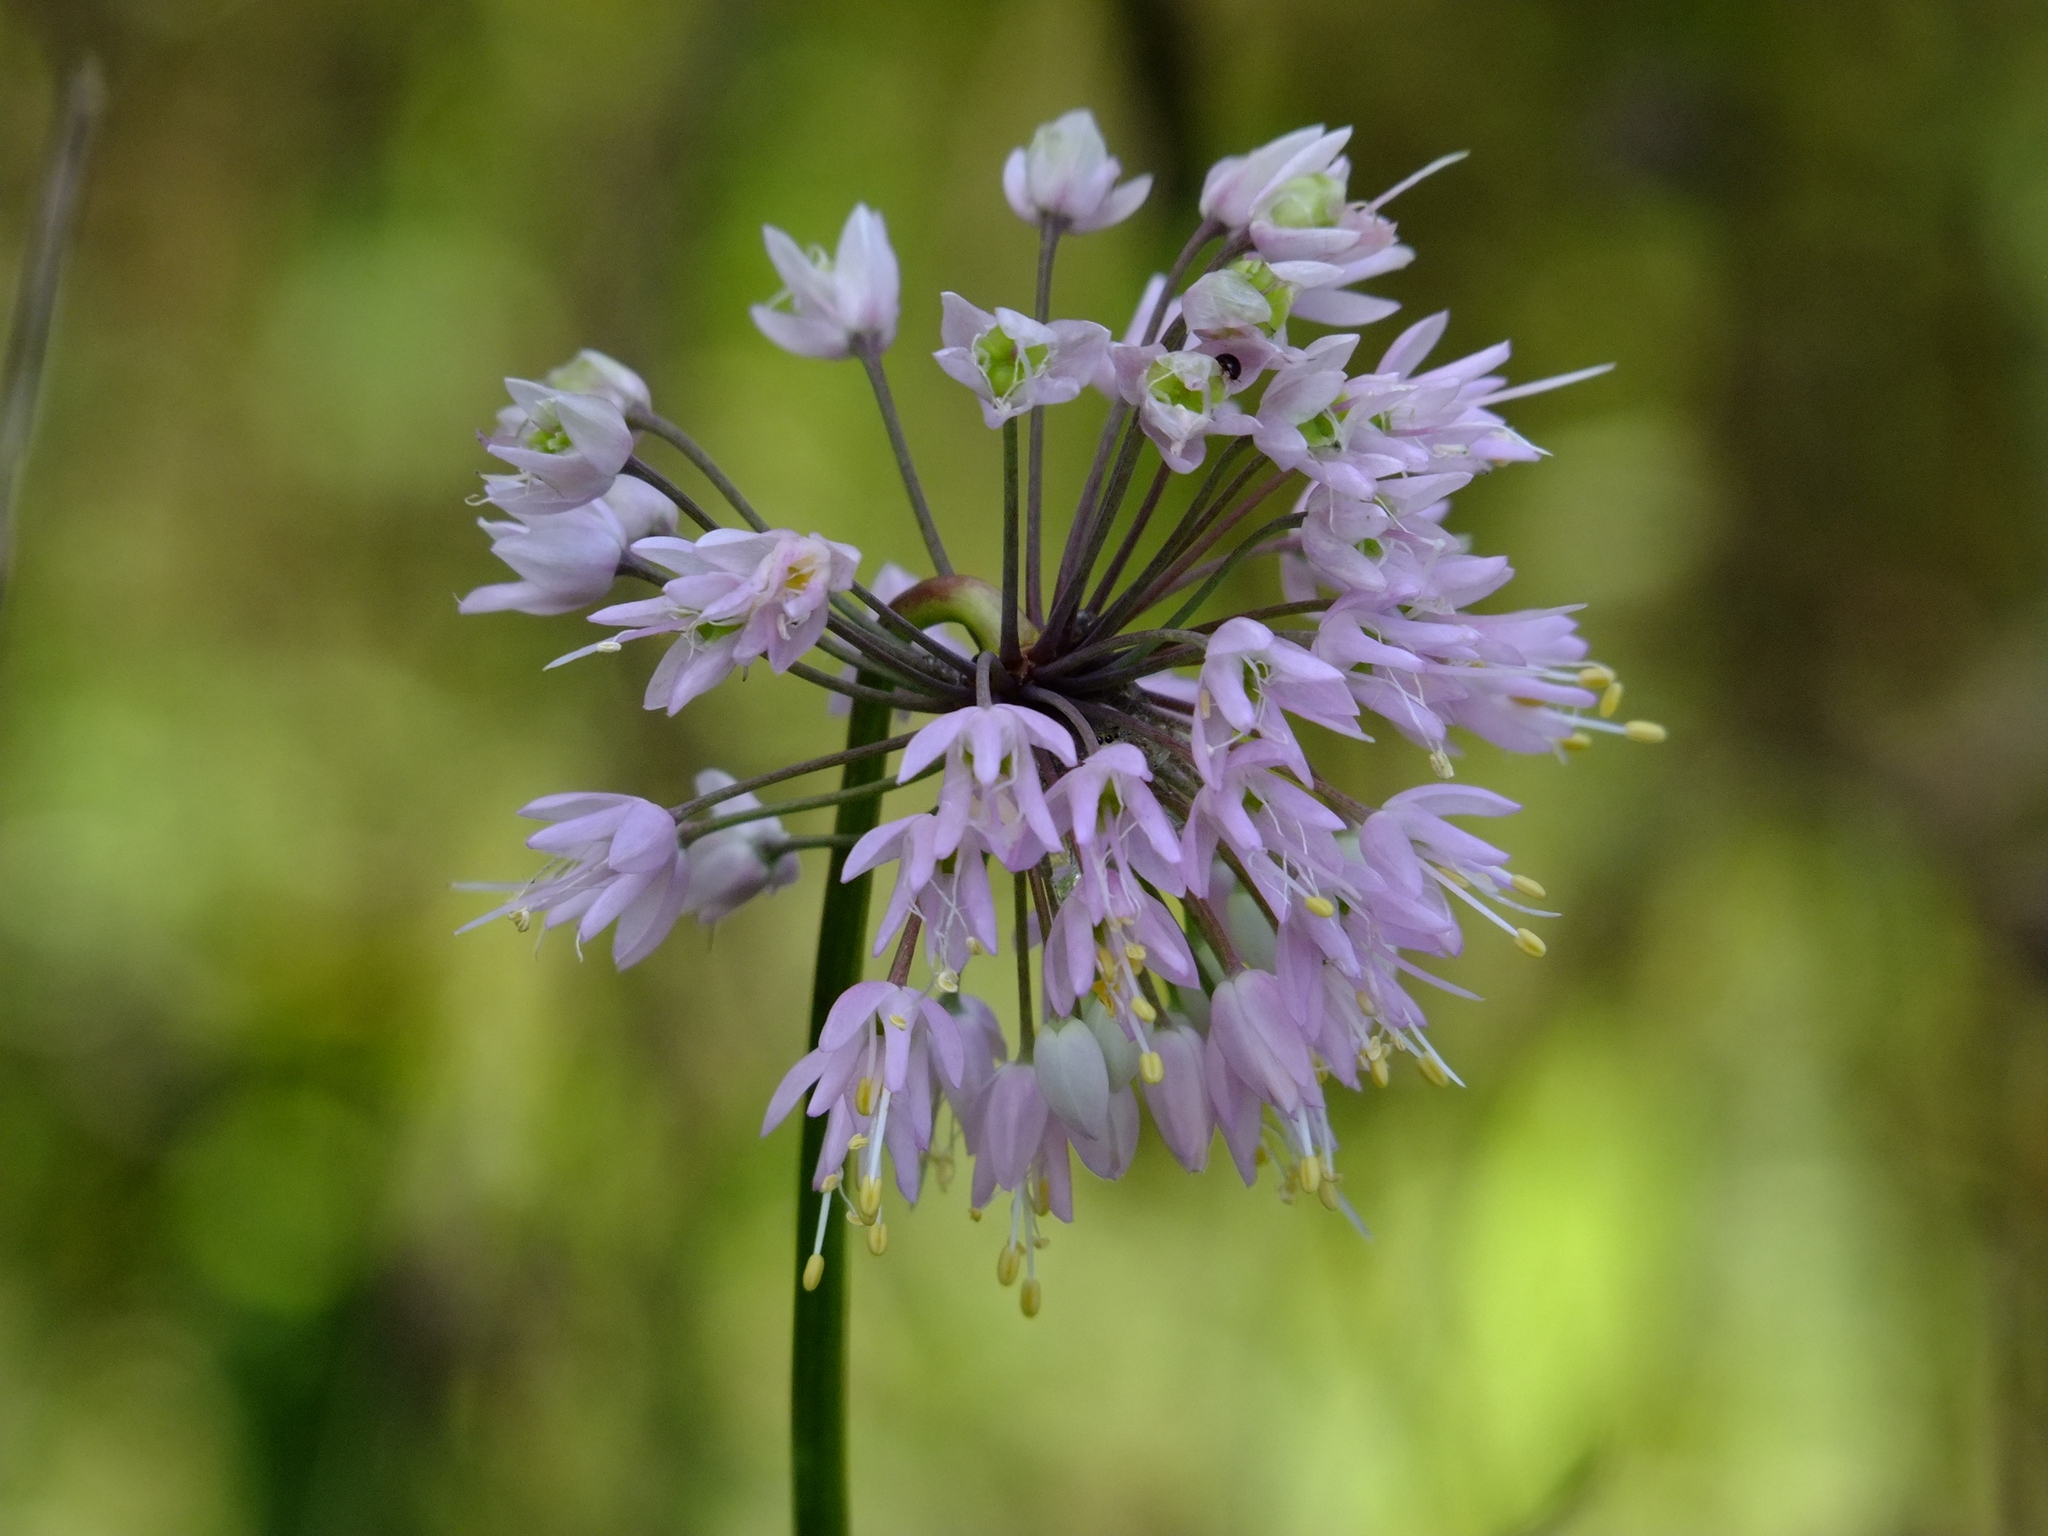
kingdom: Plantae
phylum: Tracheophyta
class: Liliopsida
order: Asparagales
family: Amaryllidaceae
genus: Allium
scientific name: Allium cernuum
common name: Nodding onion
